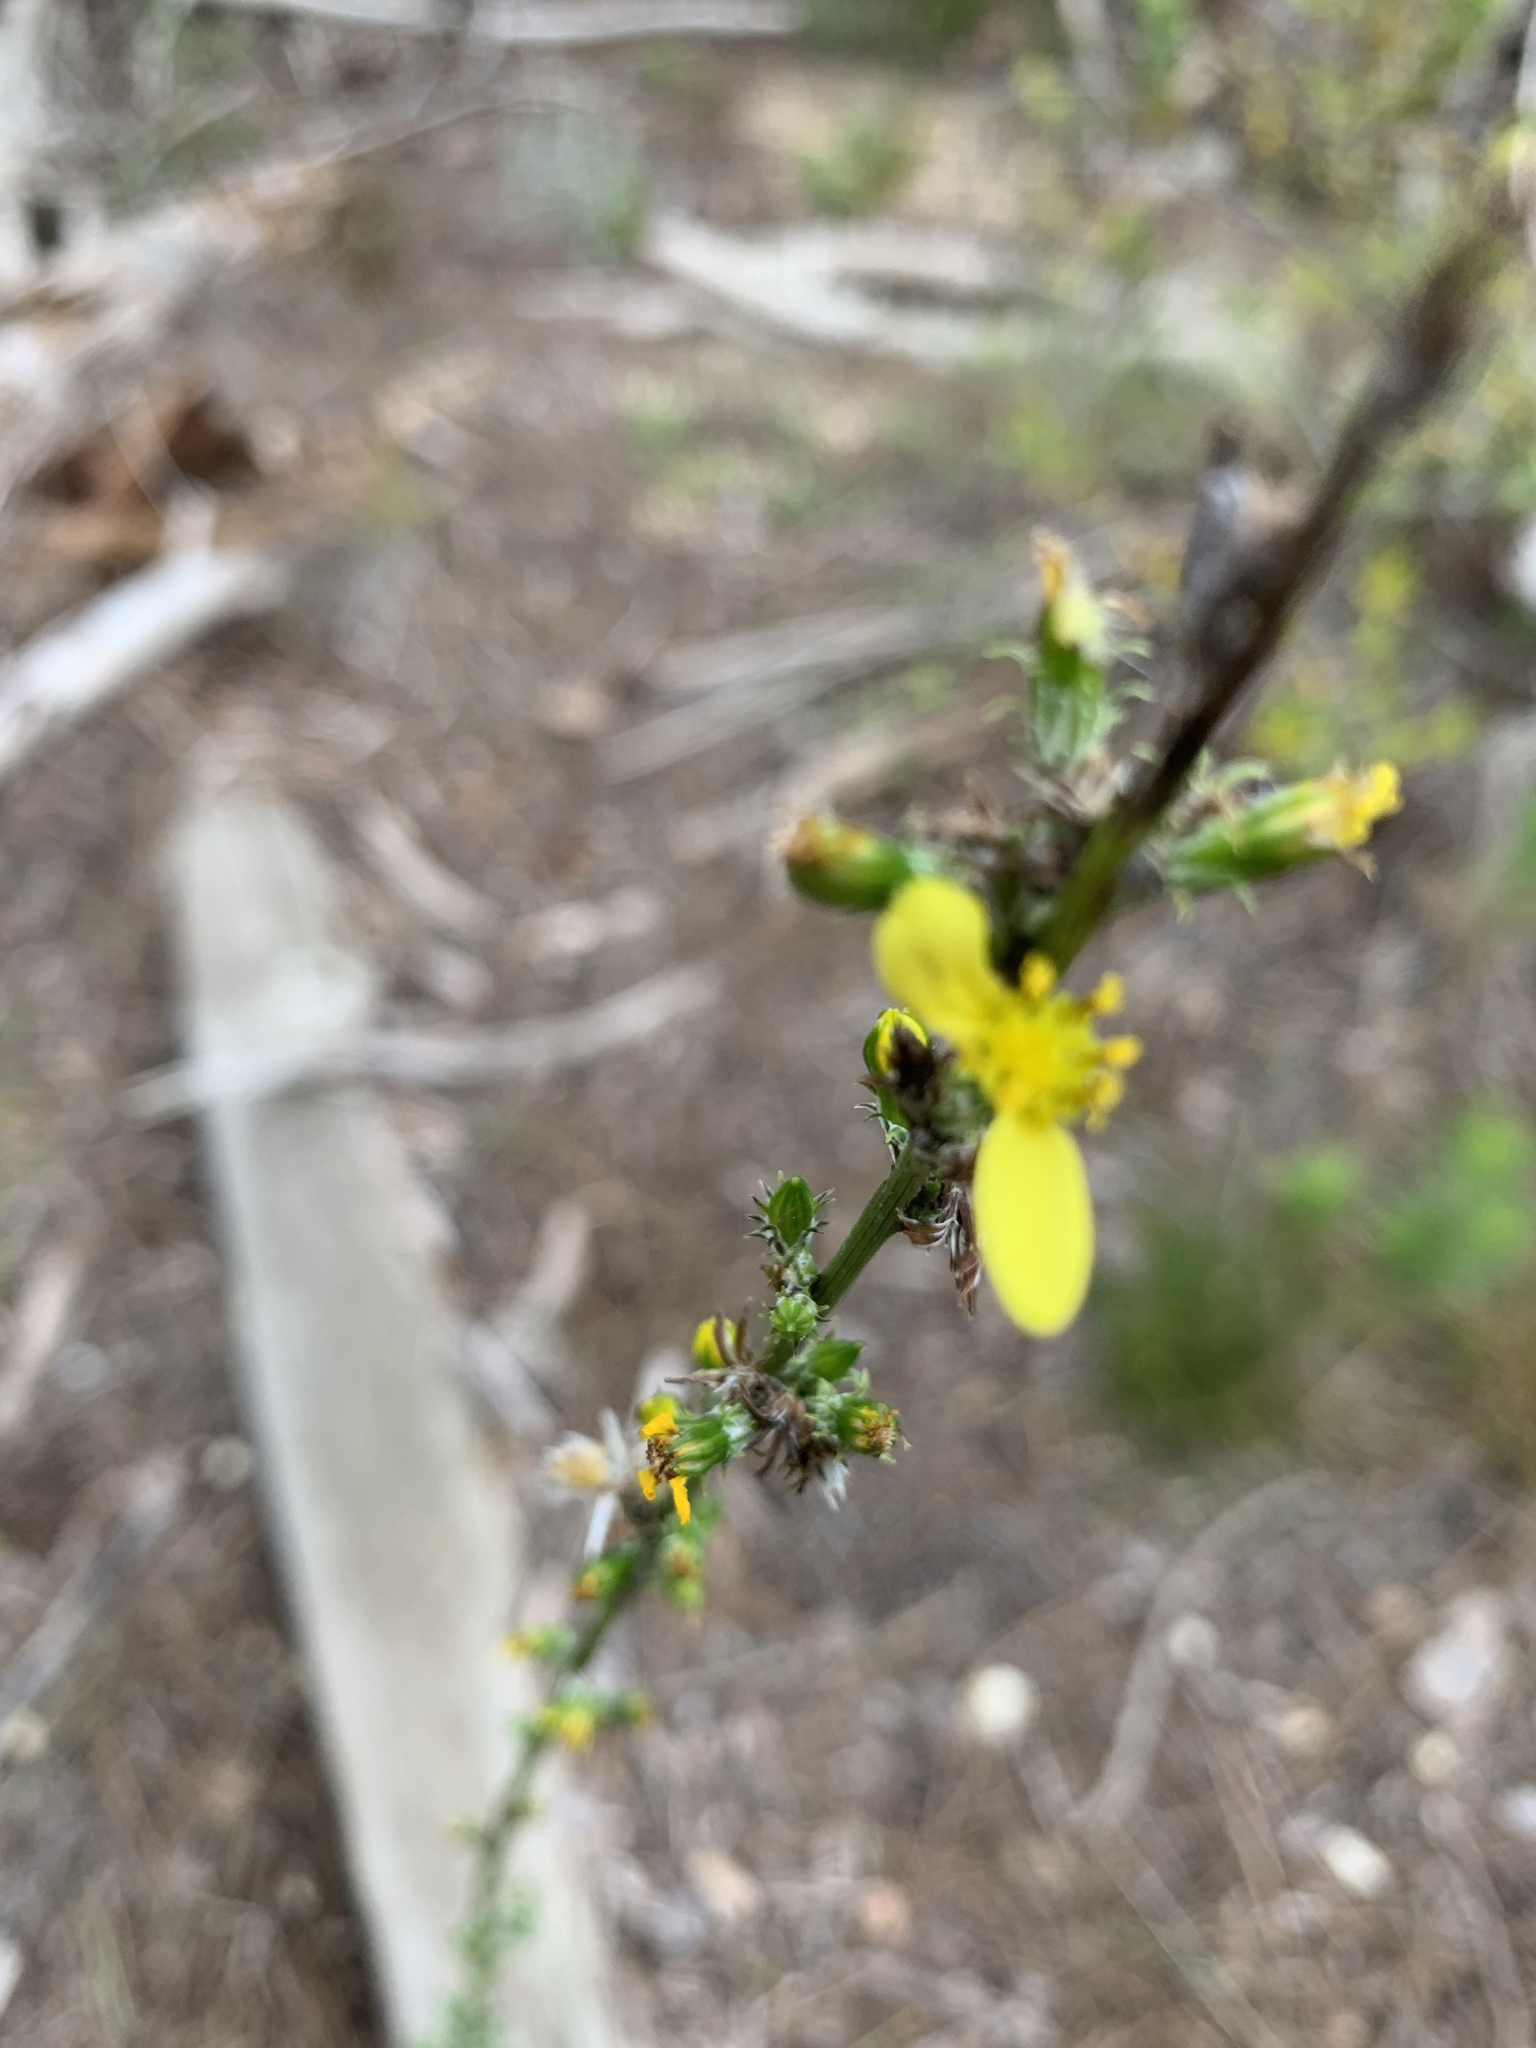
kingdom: Plantae
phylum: Tracheophyta
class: Magnoliopsida
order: Asterales
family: Asteraceae
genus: Senecio
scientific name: Senecio pubigerus
